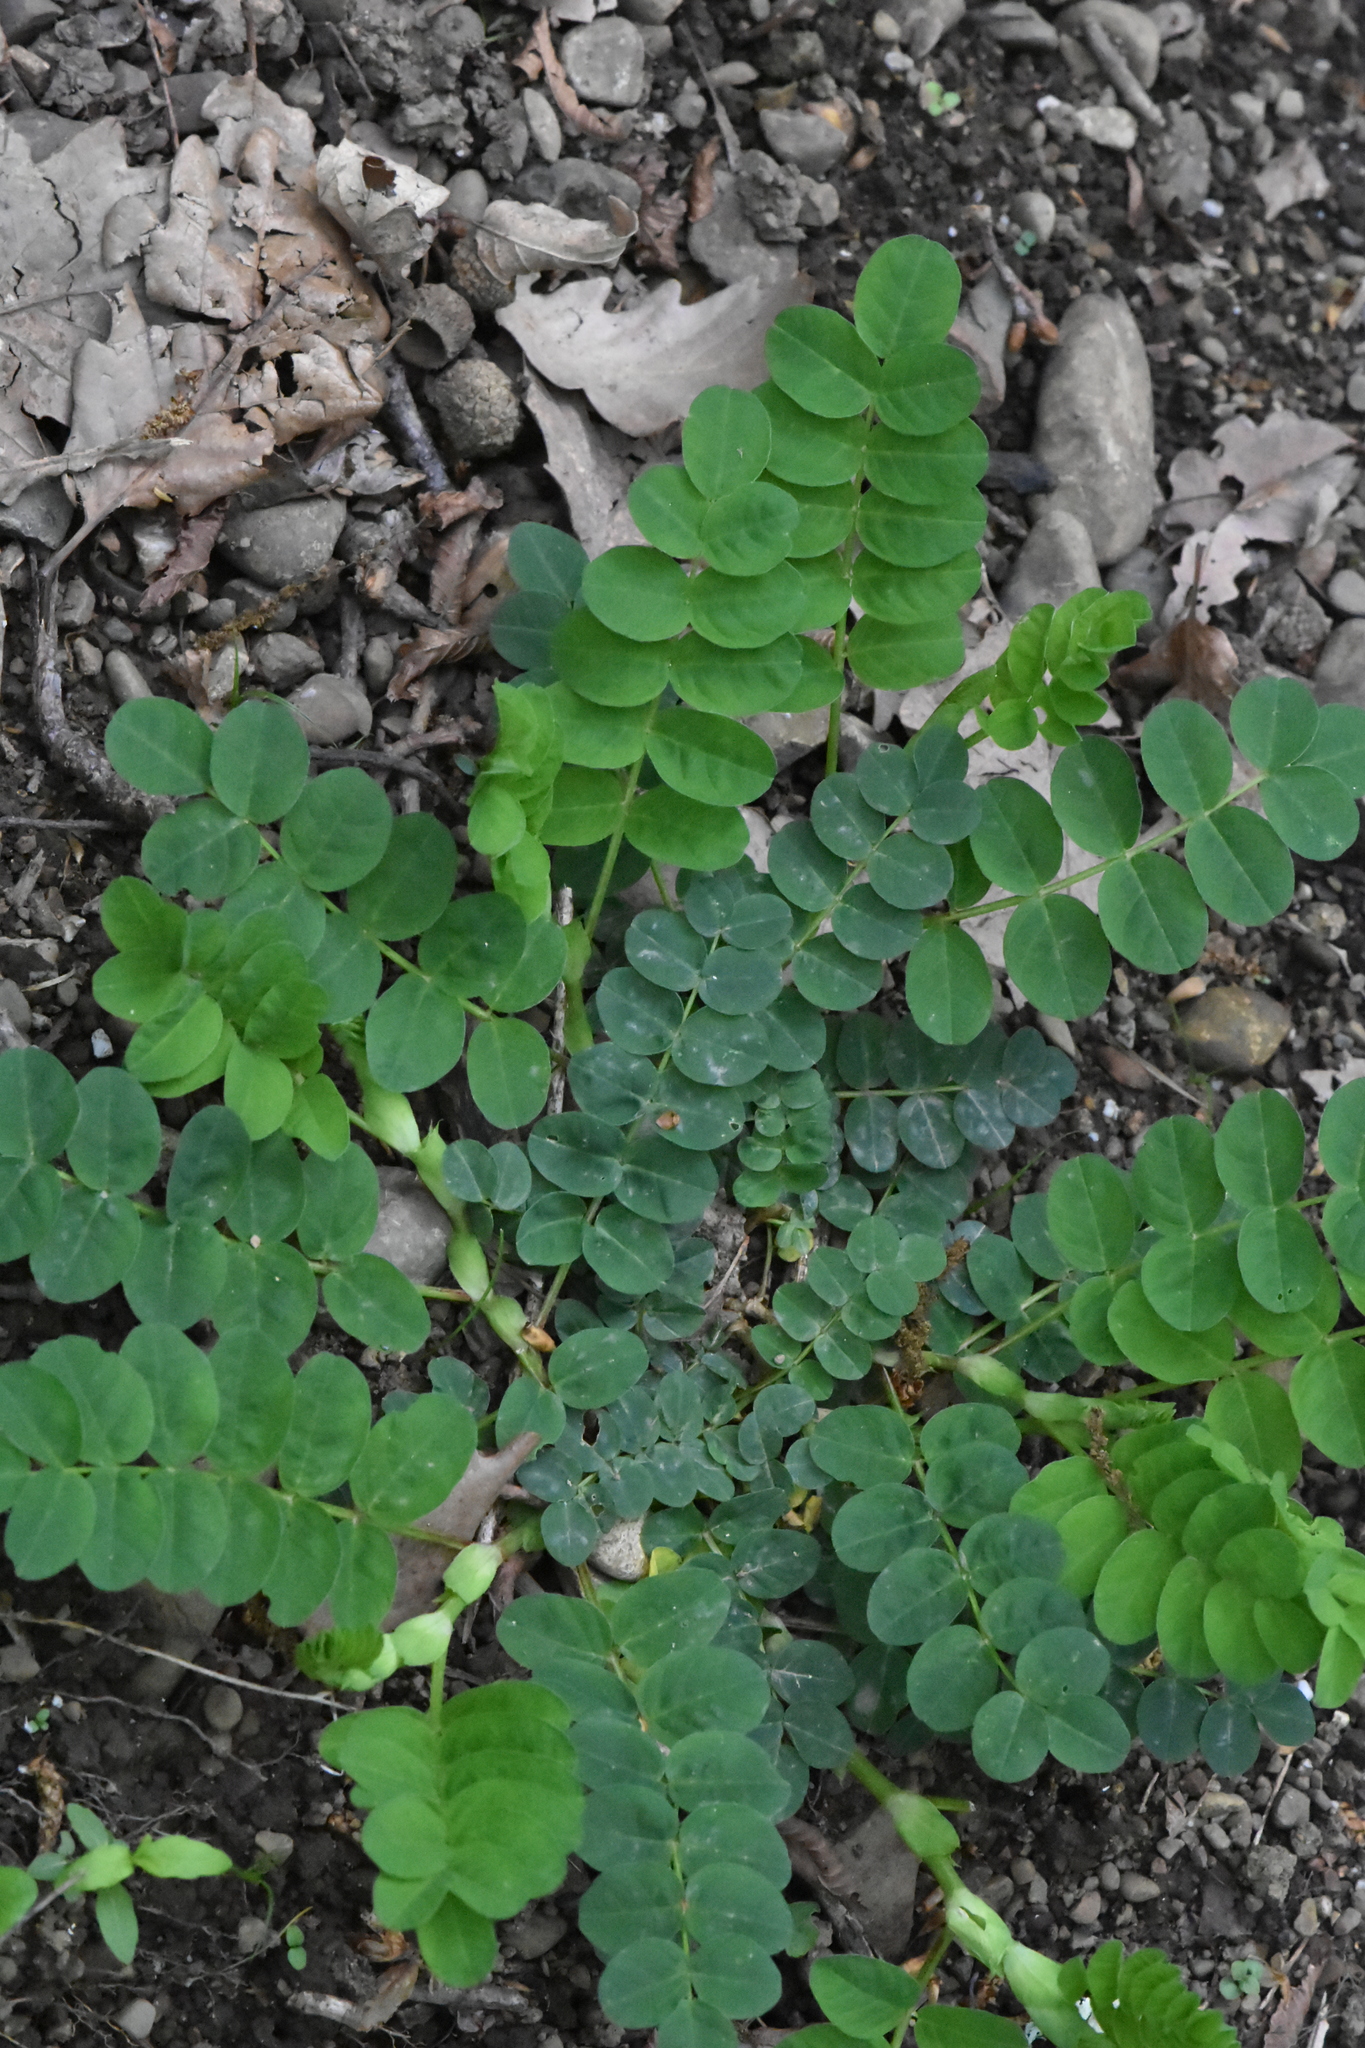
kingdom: Plantae
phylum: Tracheophyta
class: Magnoliopsida
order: Fabales
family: Fabaceae
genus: Astragalus
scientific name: Astragalus glycyphyllos
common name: Wild liquorice
